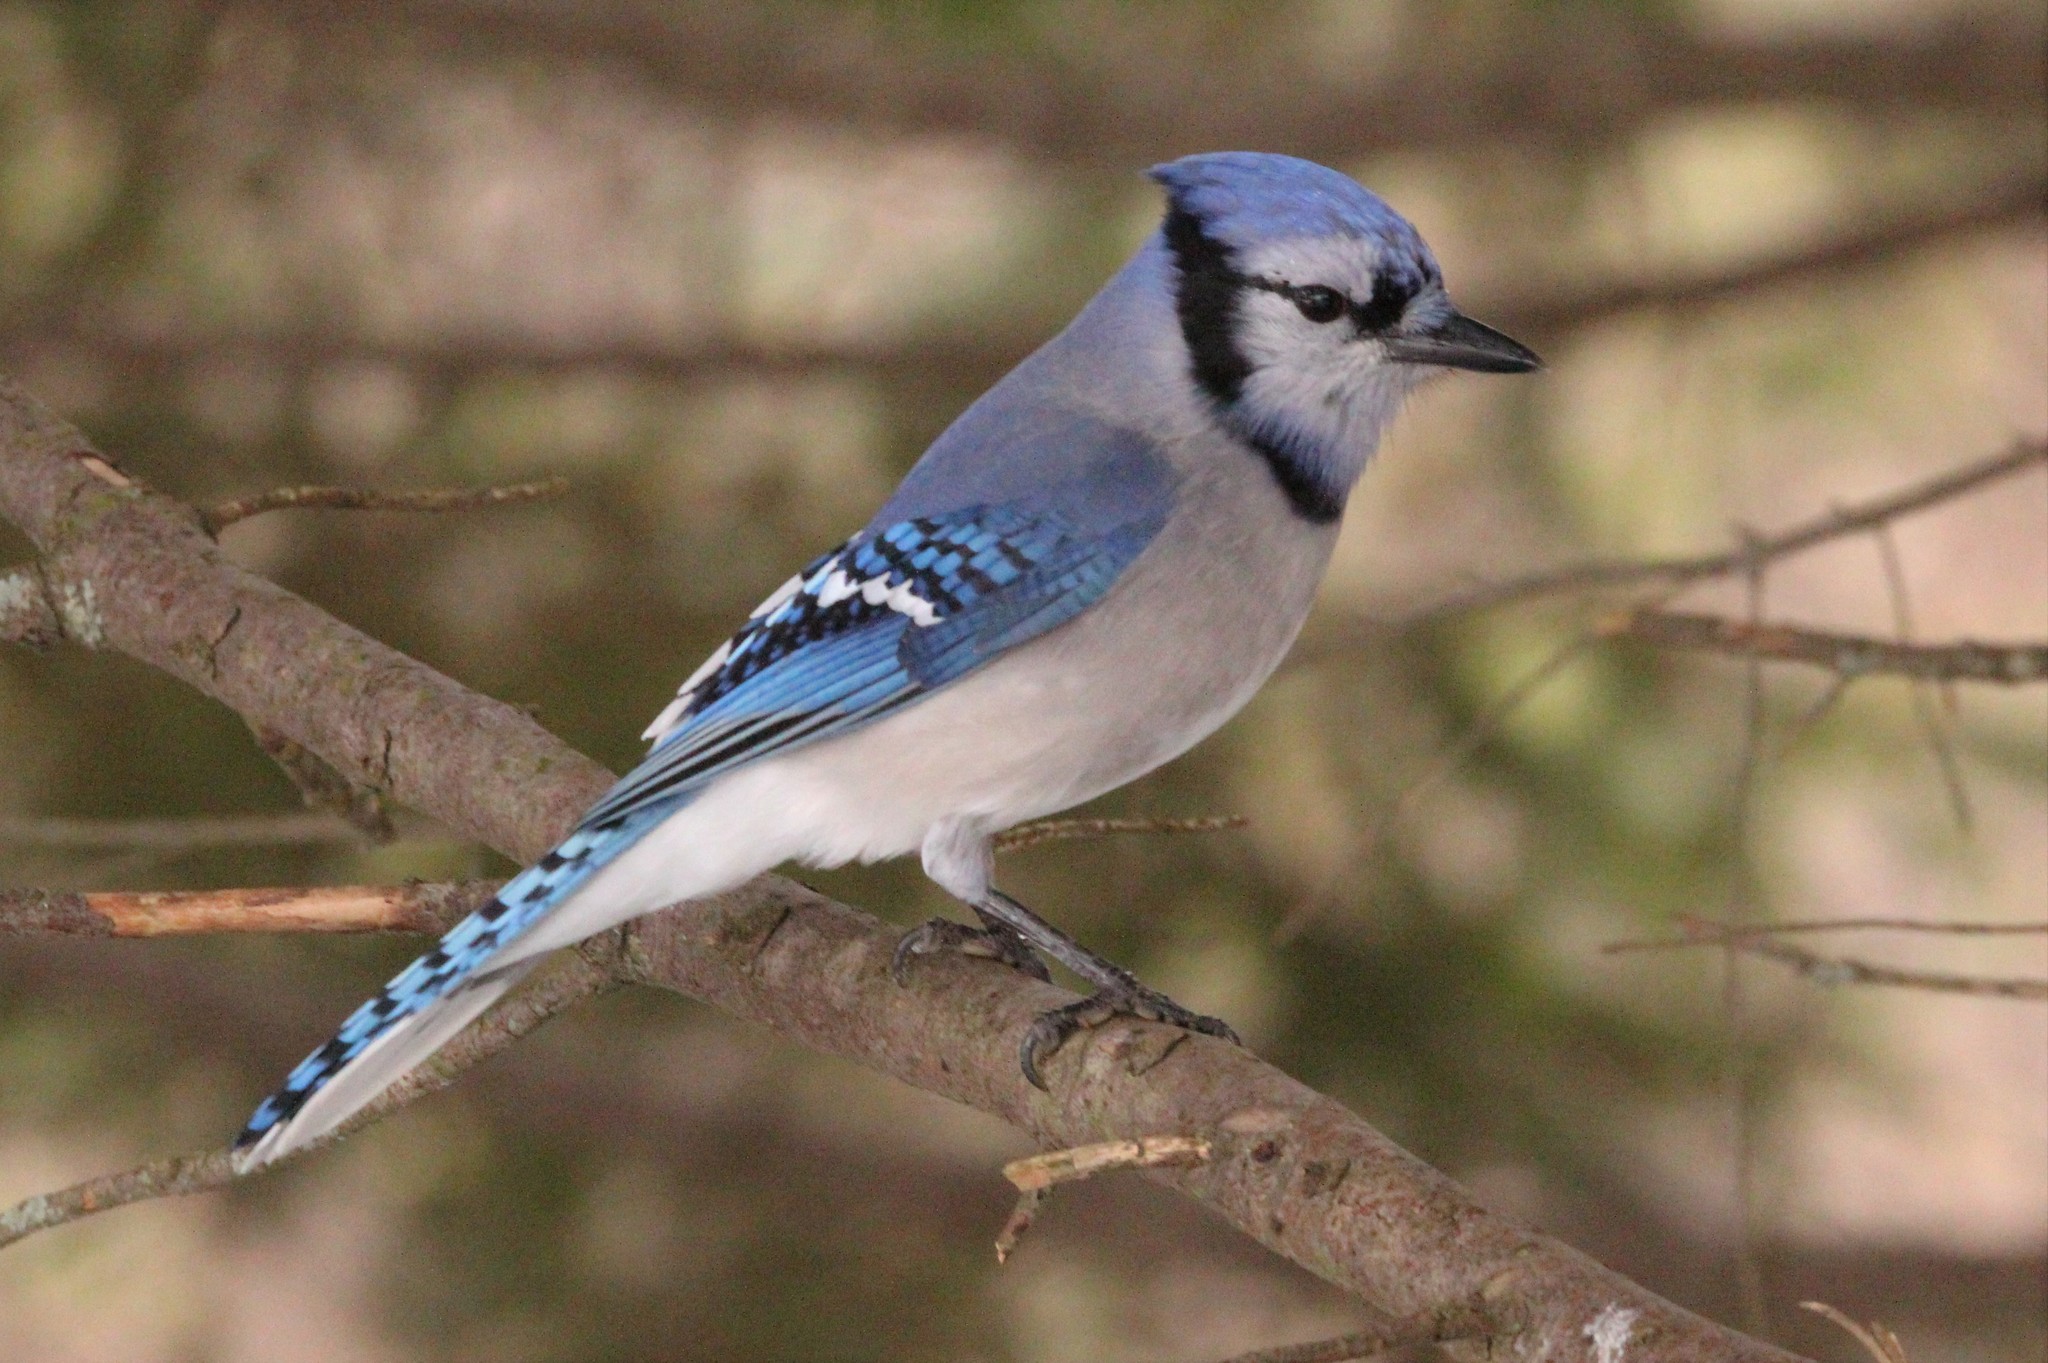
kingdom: Animalia
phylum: Chordata
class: Aves
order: Passeriformes
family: Corvidae
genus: Cyanocitta
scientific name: Cyanocitta cristata
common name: Blue jay
